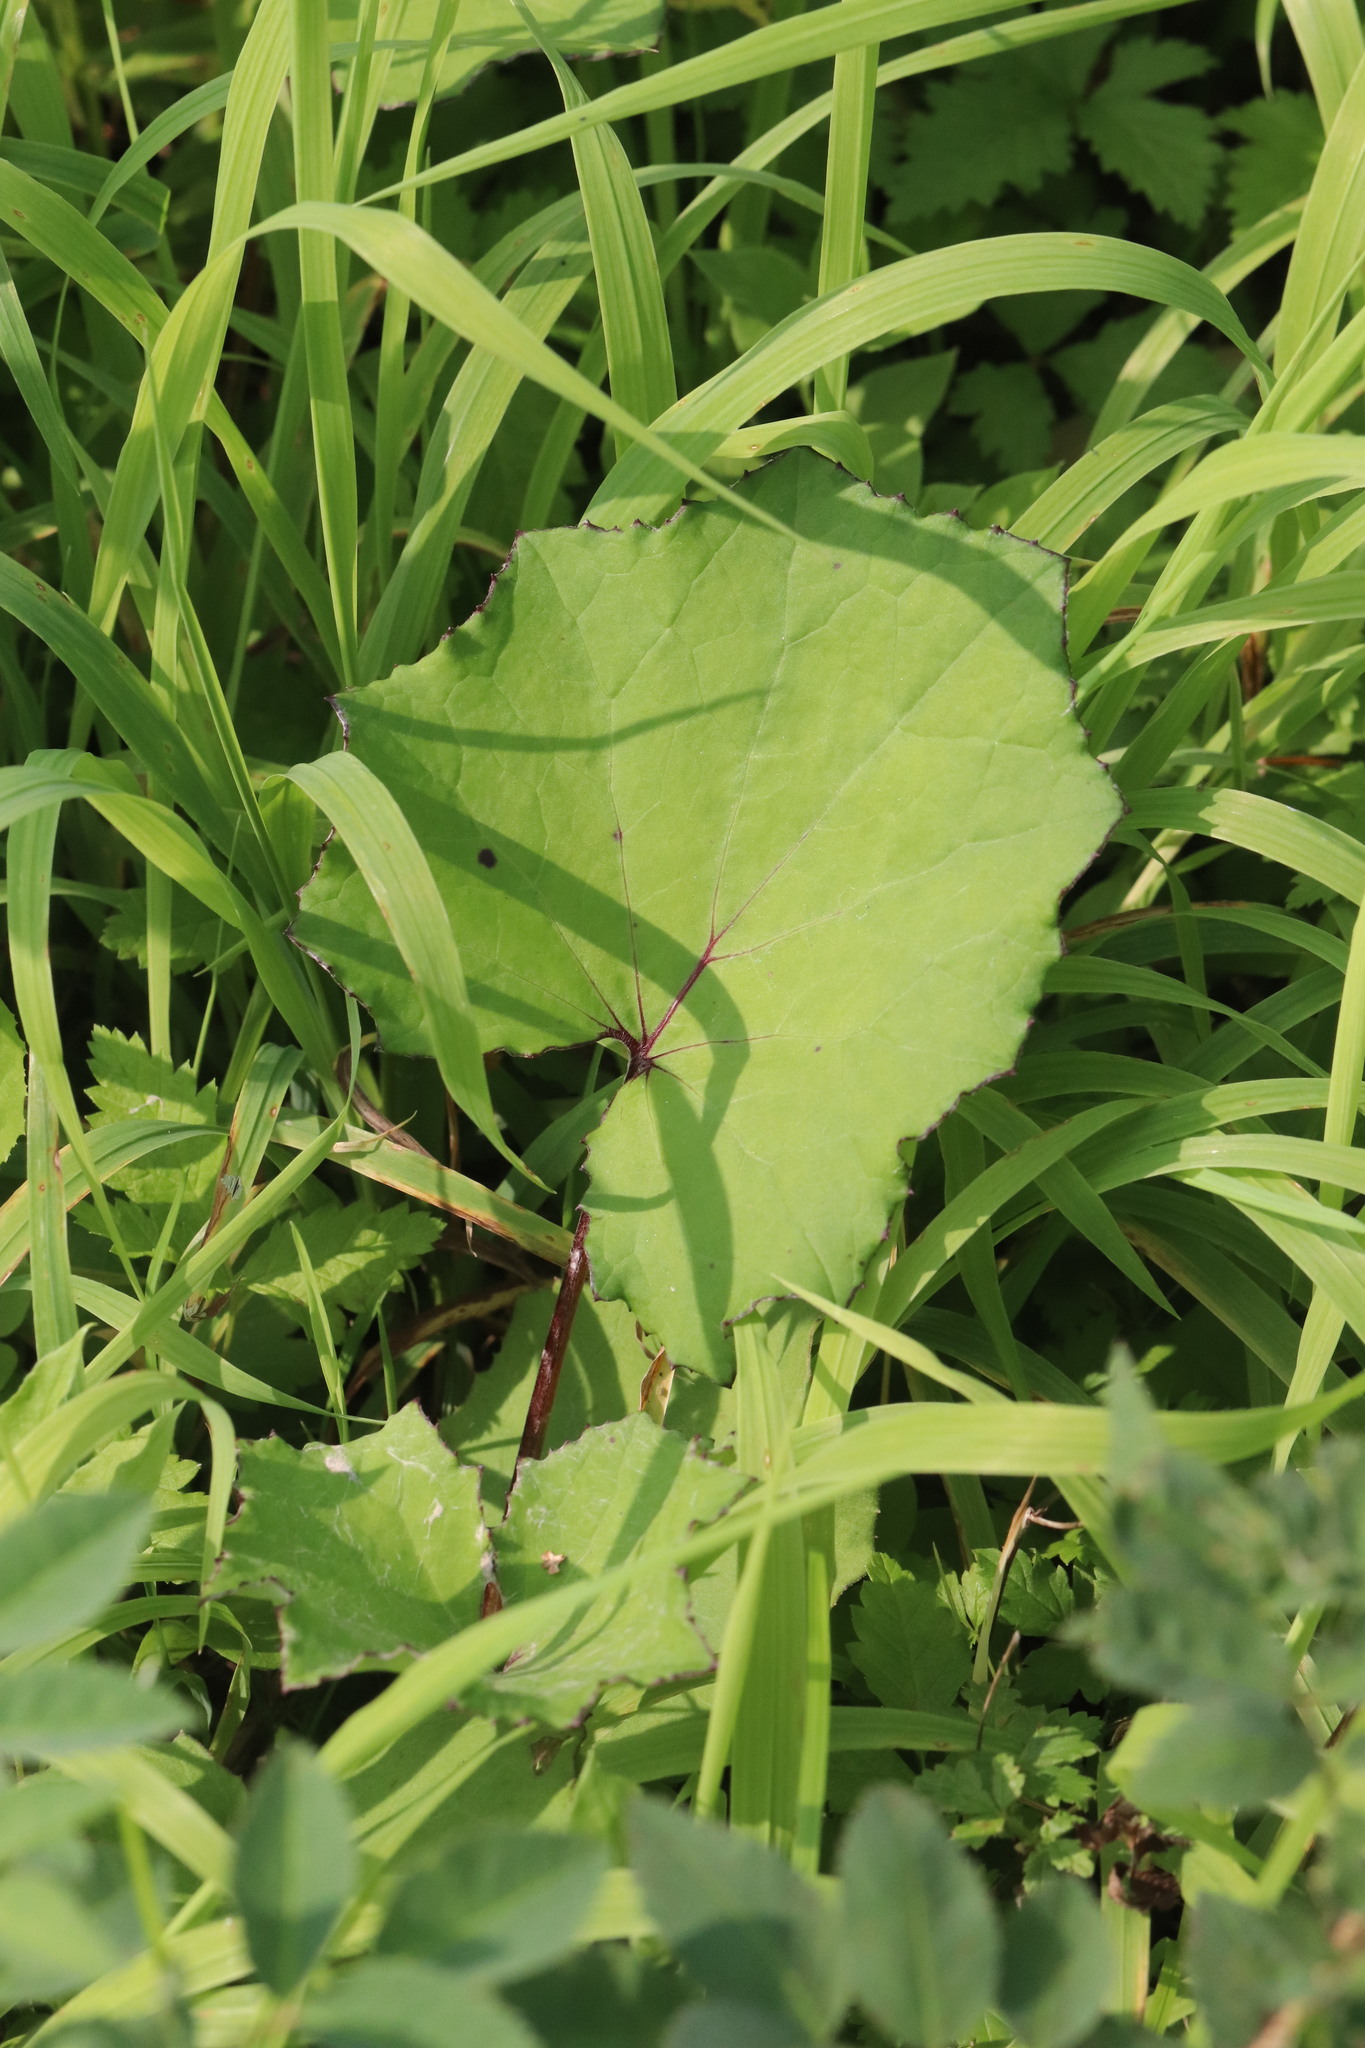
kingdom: Plantae
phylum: Tracheophyta
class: Magnoliopsida
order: Asterales
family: Asteraceae
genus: Tussilago
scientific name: Tussilago farfara
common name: Coltsfoot
